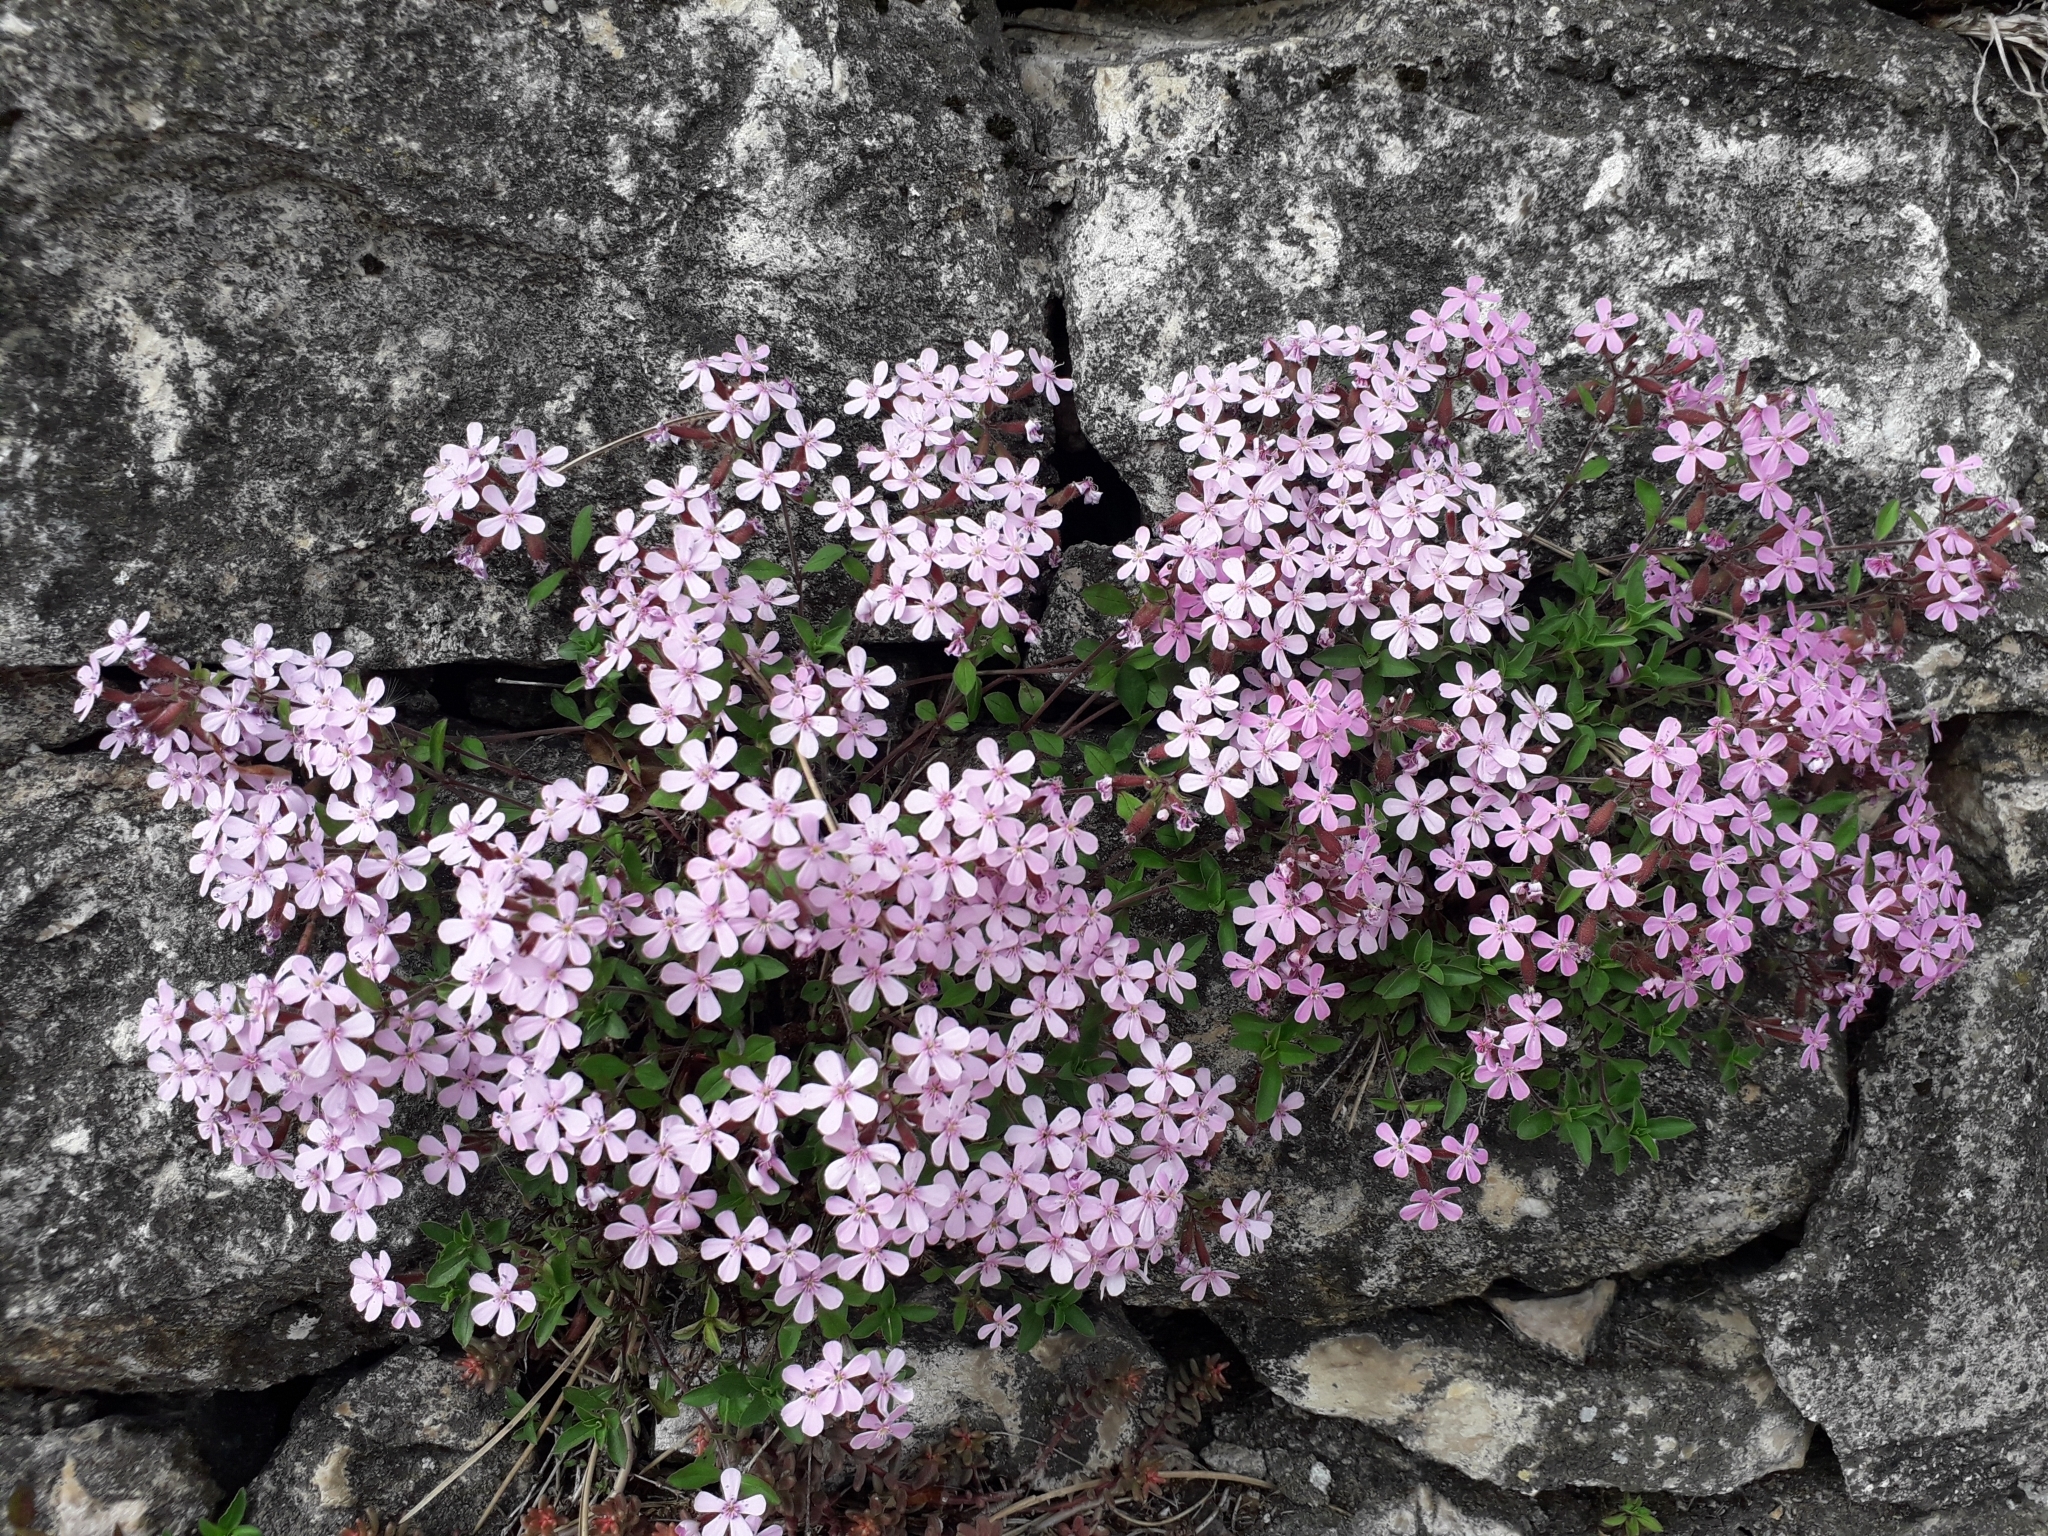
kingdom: Plantae
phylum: Tracheophyta
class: Magnoliopsida
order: Caryophyllales
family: Caryophyllaceae
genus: Saponaria
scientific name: Saponaria ocymoides
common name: Rock soapwort
